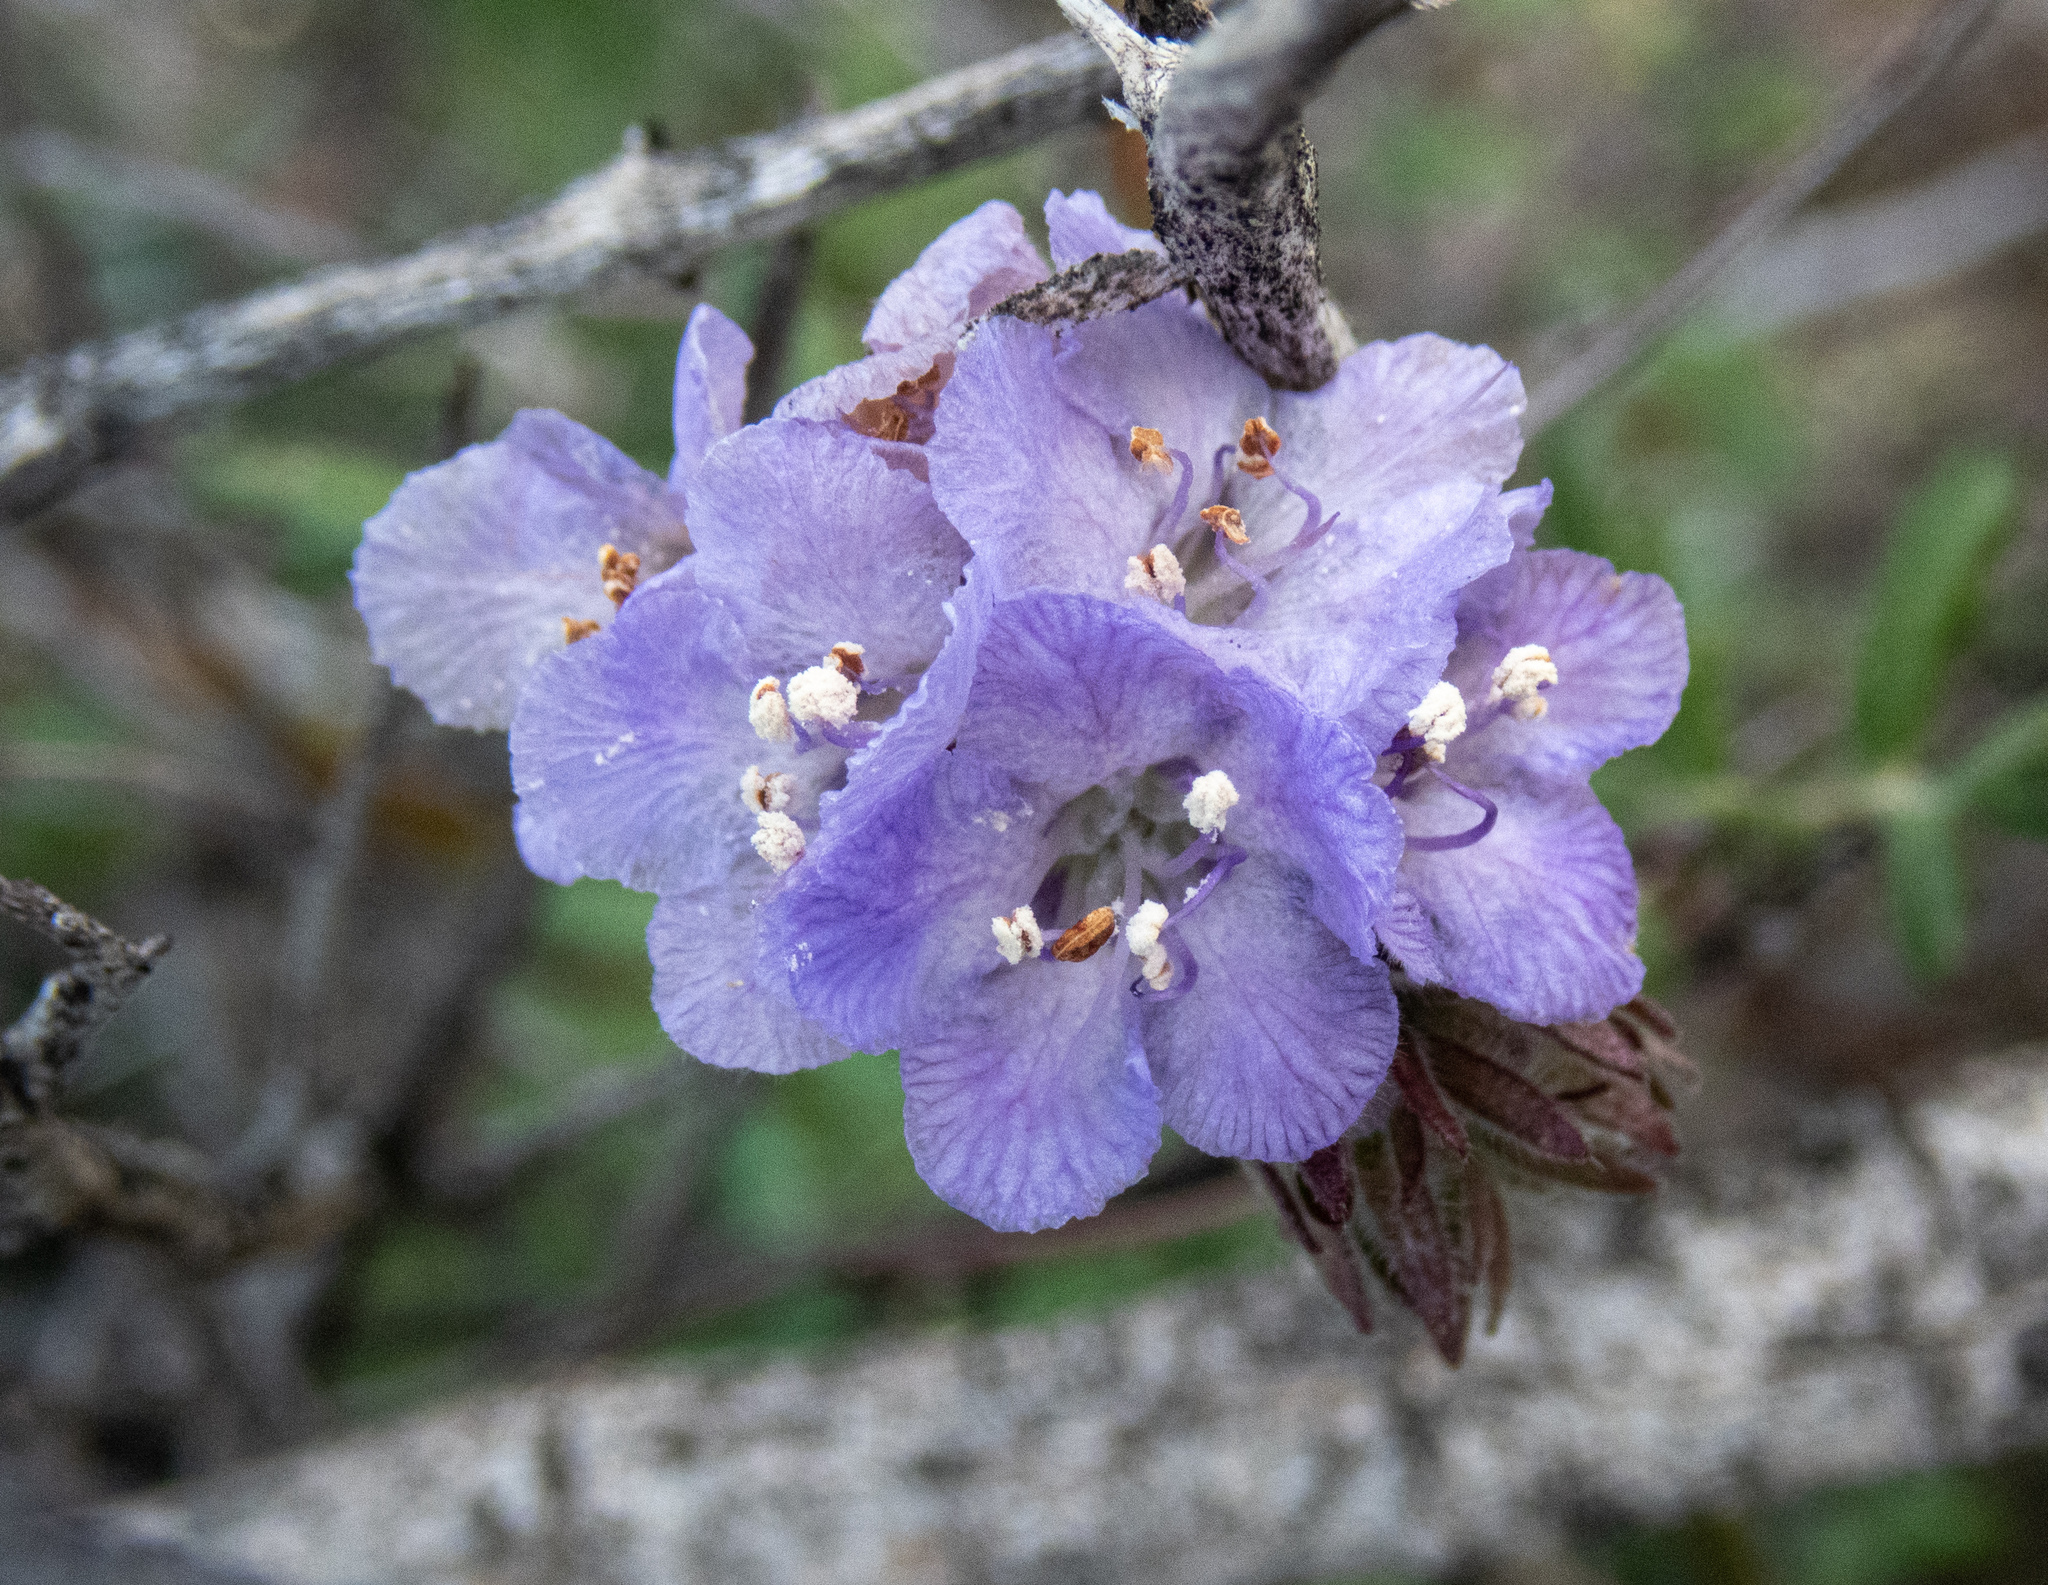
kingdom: Plantae
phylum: Tracheophyta
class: Magnoliopsida
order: Boraginales
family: Hydrophyllaceae
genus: Phacelia
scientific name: Phacelia distans
